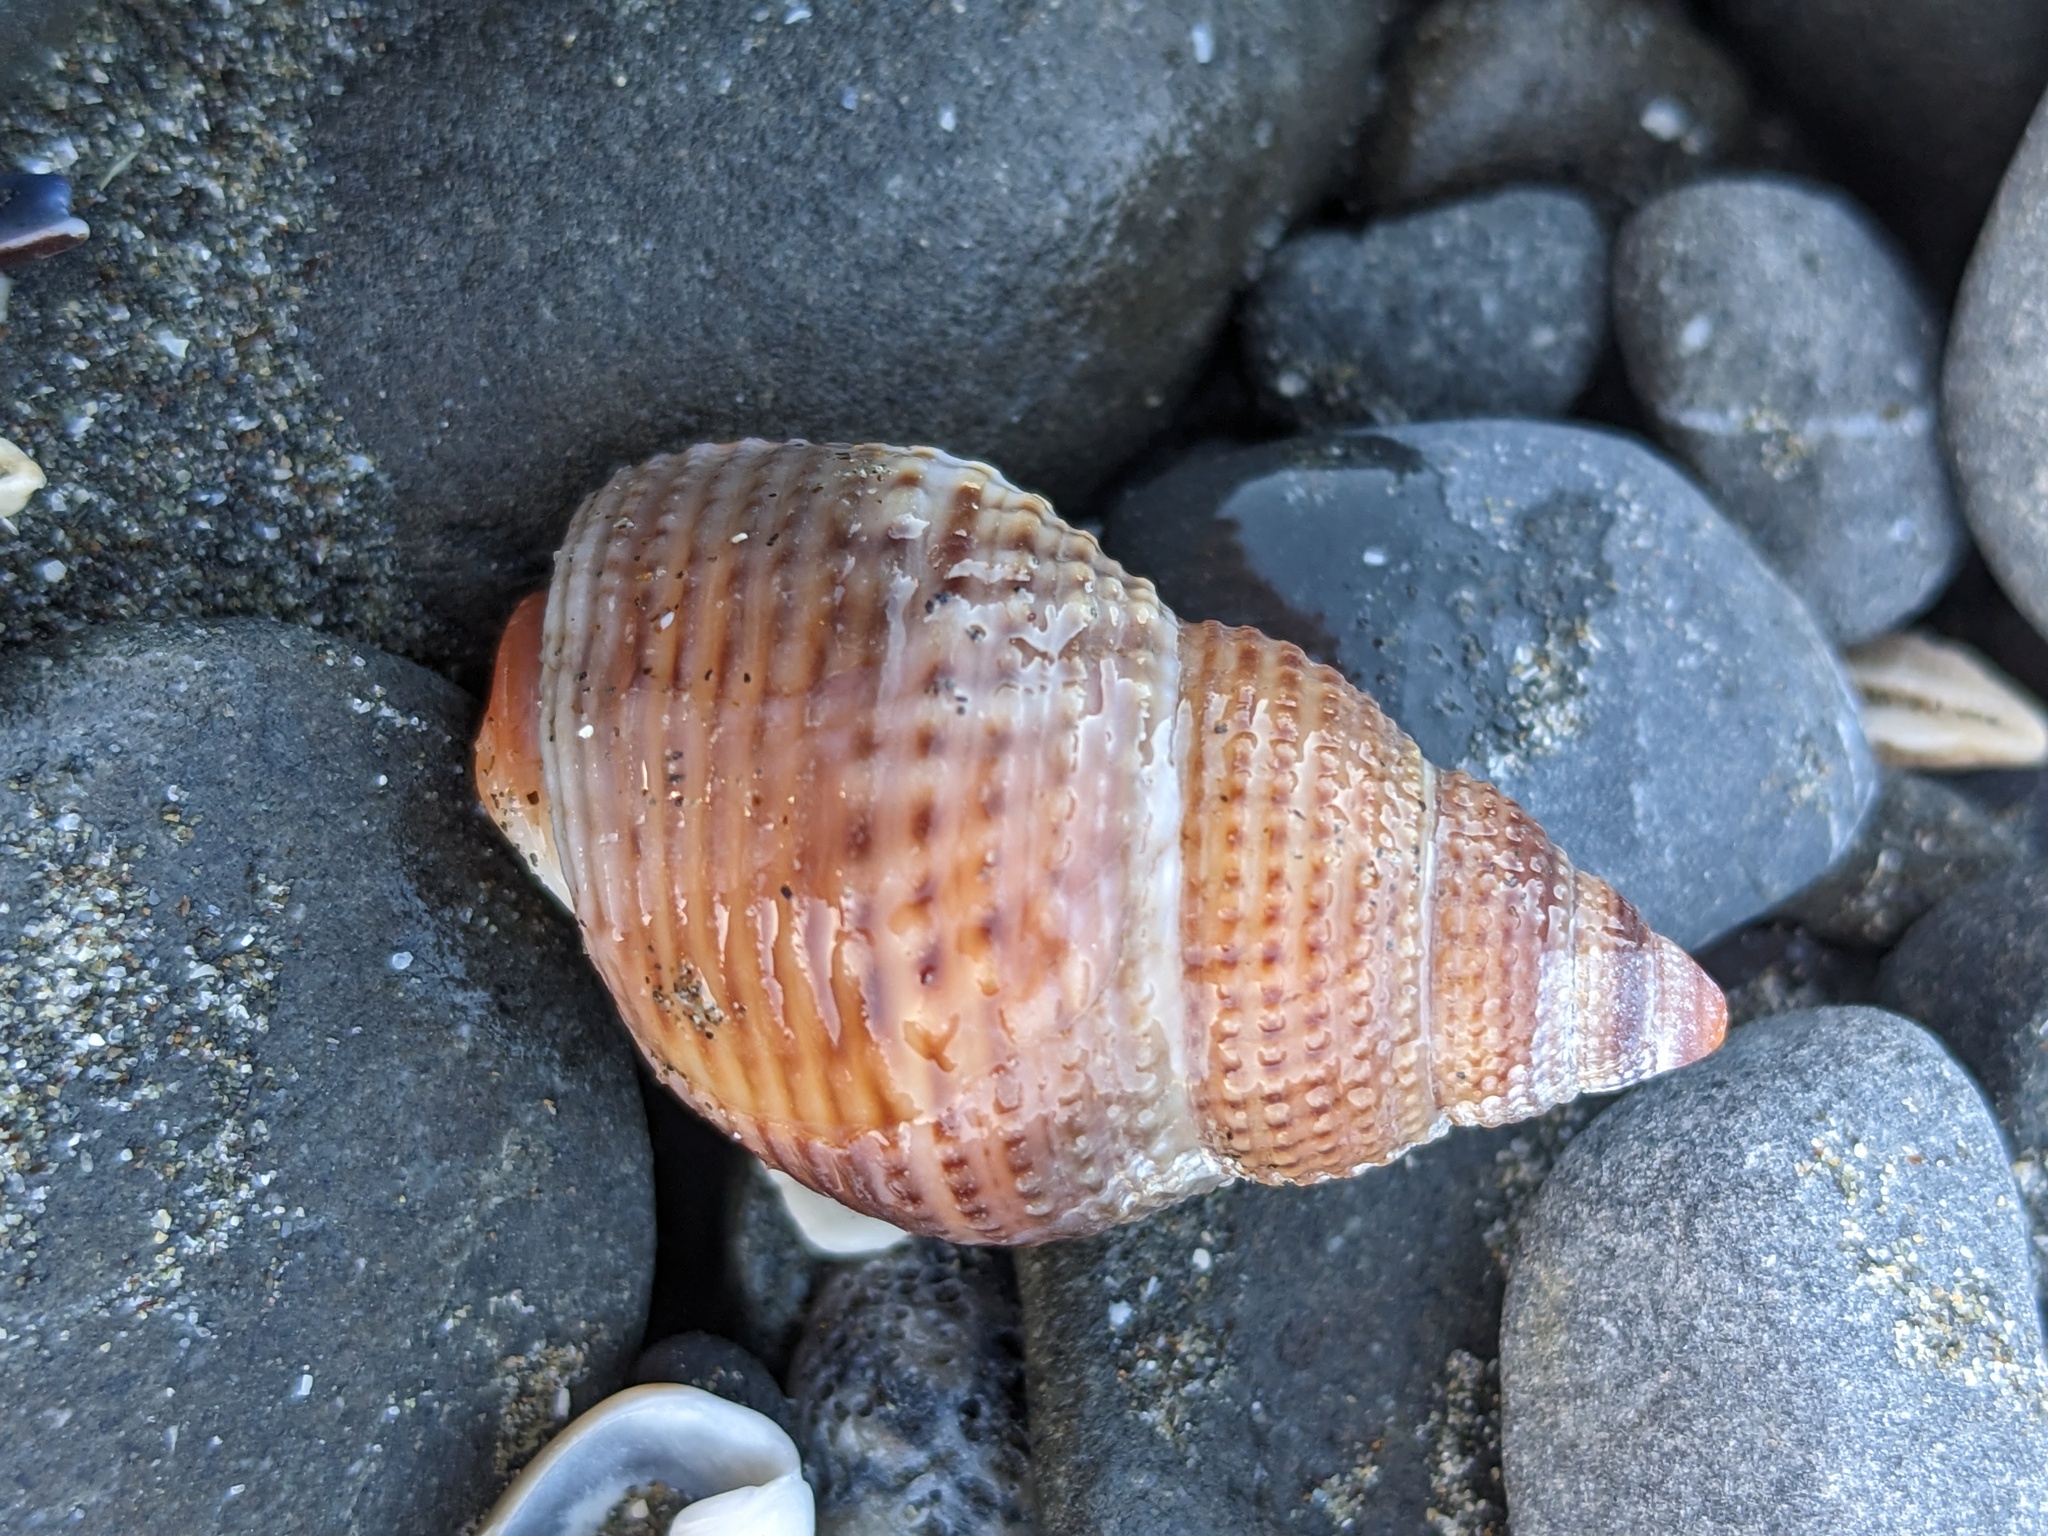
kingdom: Animalia
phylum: Mollusca
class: Gastropoda
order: Neogastropoda
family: Nassariidae
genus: Caesia
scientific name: Caesia fossata
